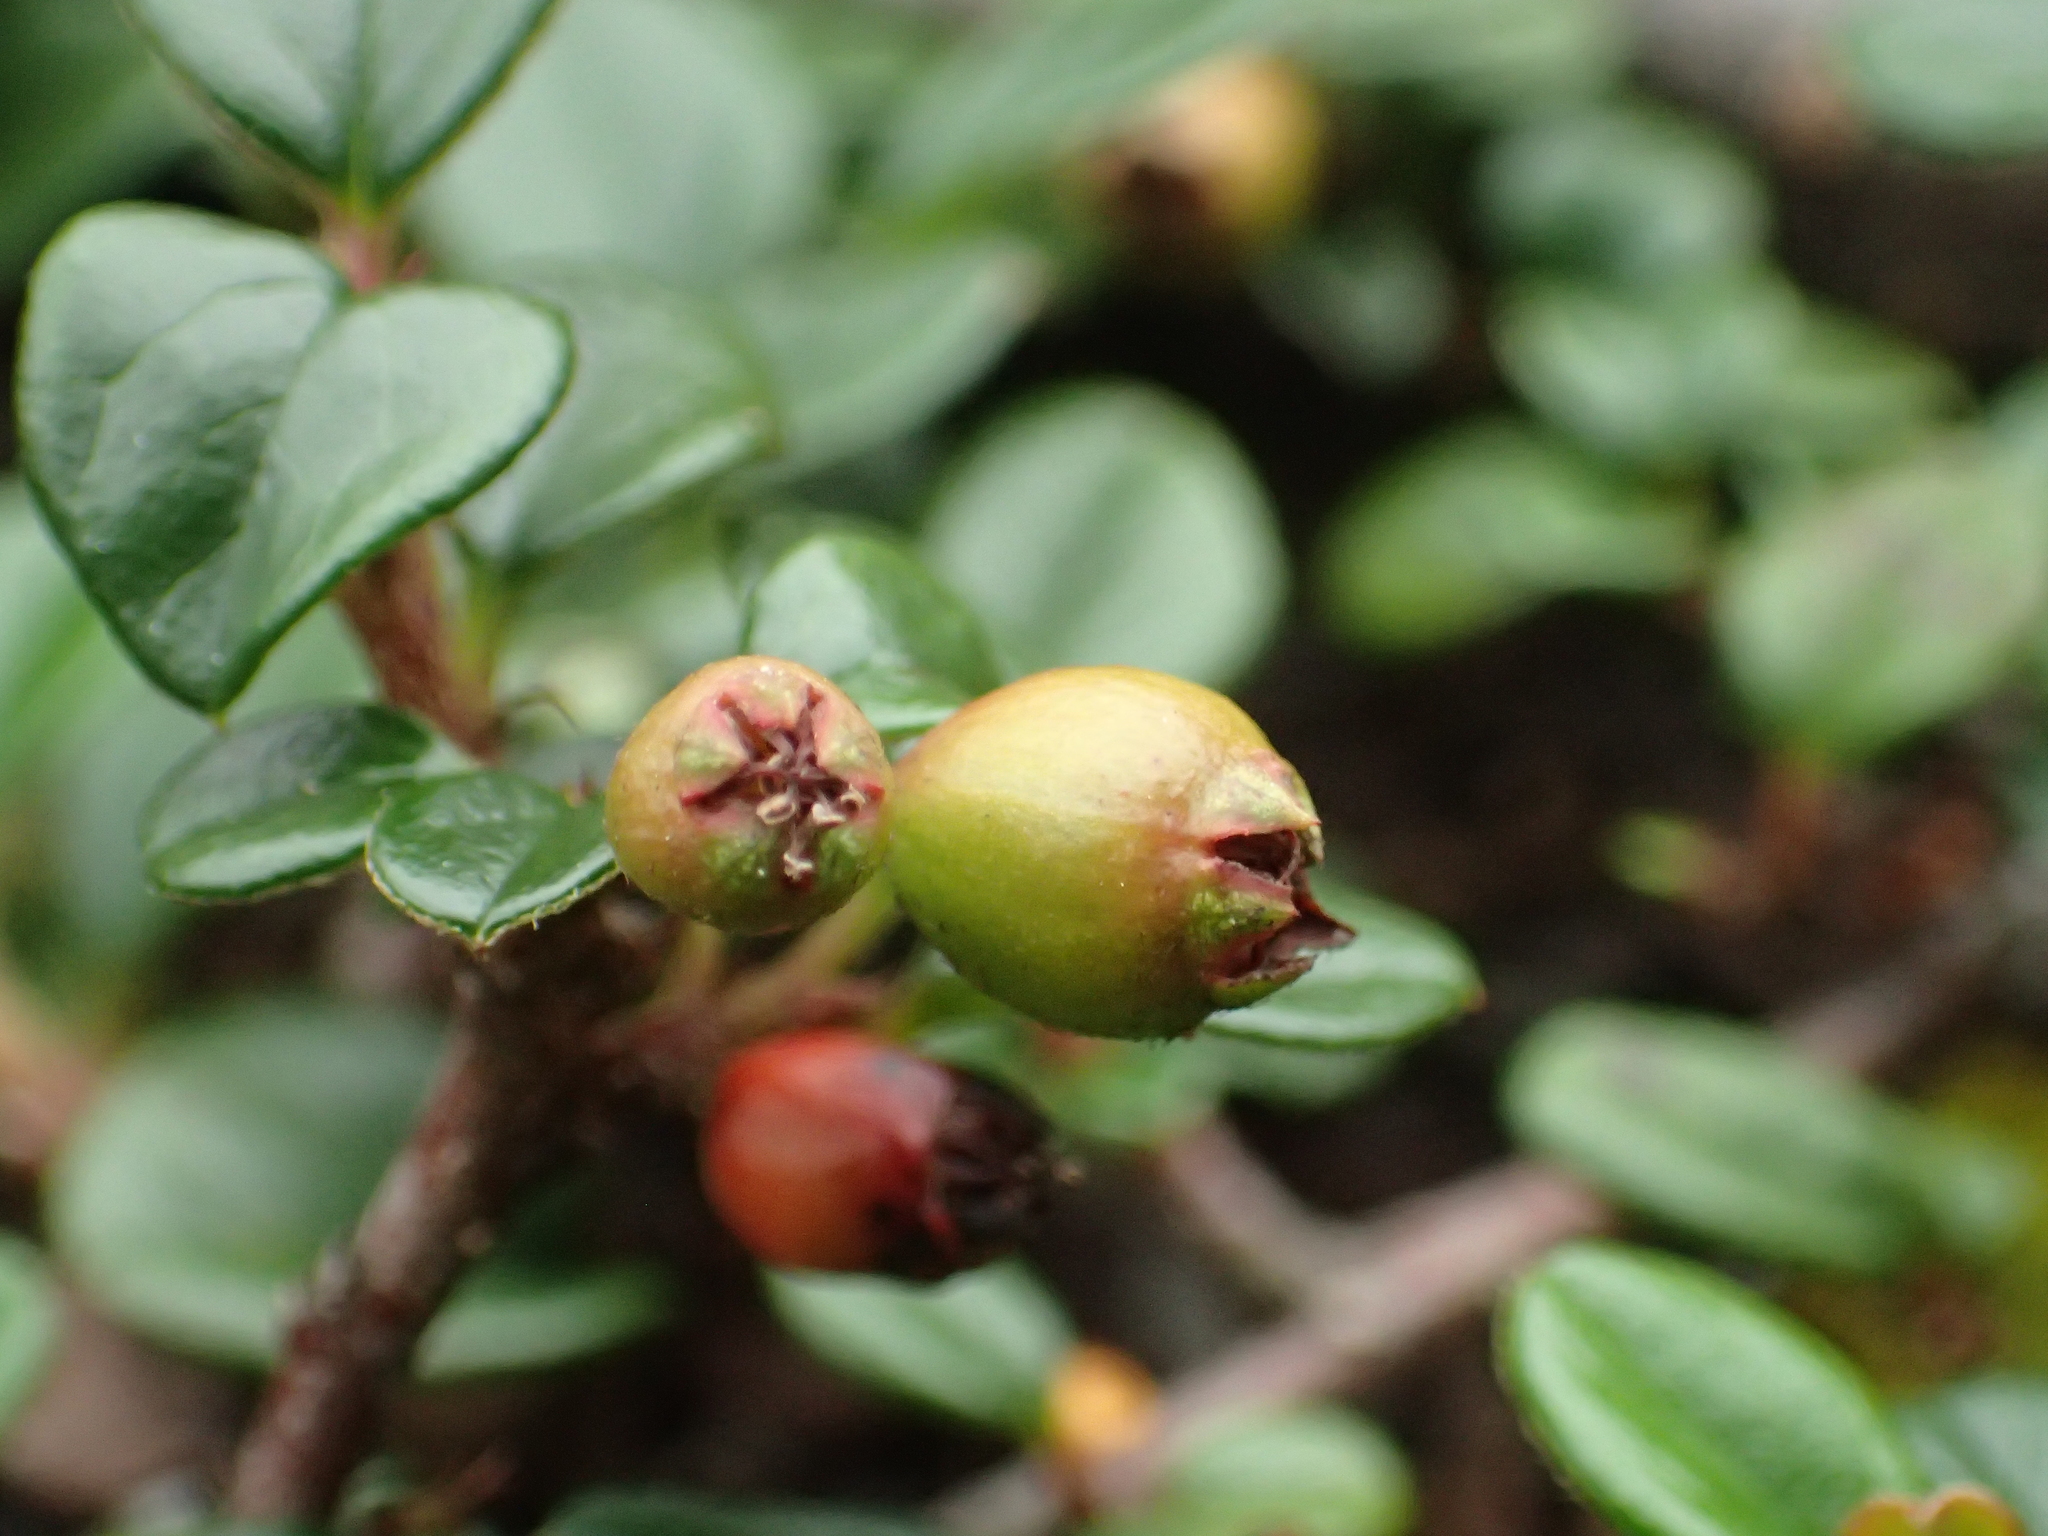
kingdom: Plantae
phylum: Tracheophyta
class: Magnoliopsida
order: Rosales
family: Rosaceae
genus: Cotoneaster
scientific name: Cotoneaster rosiflorus
